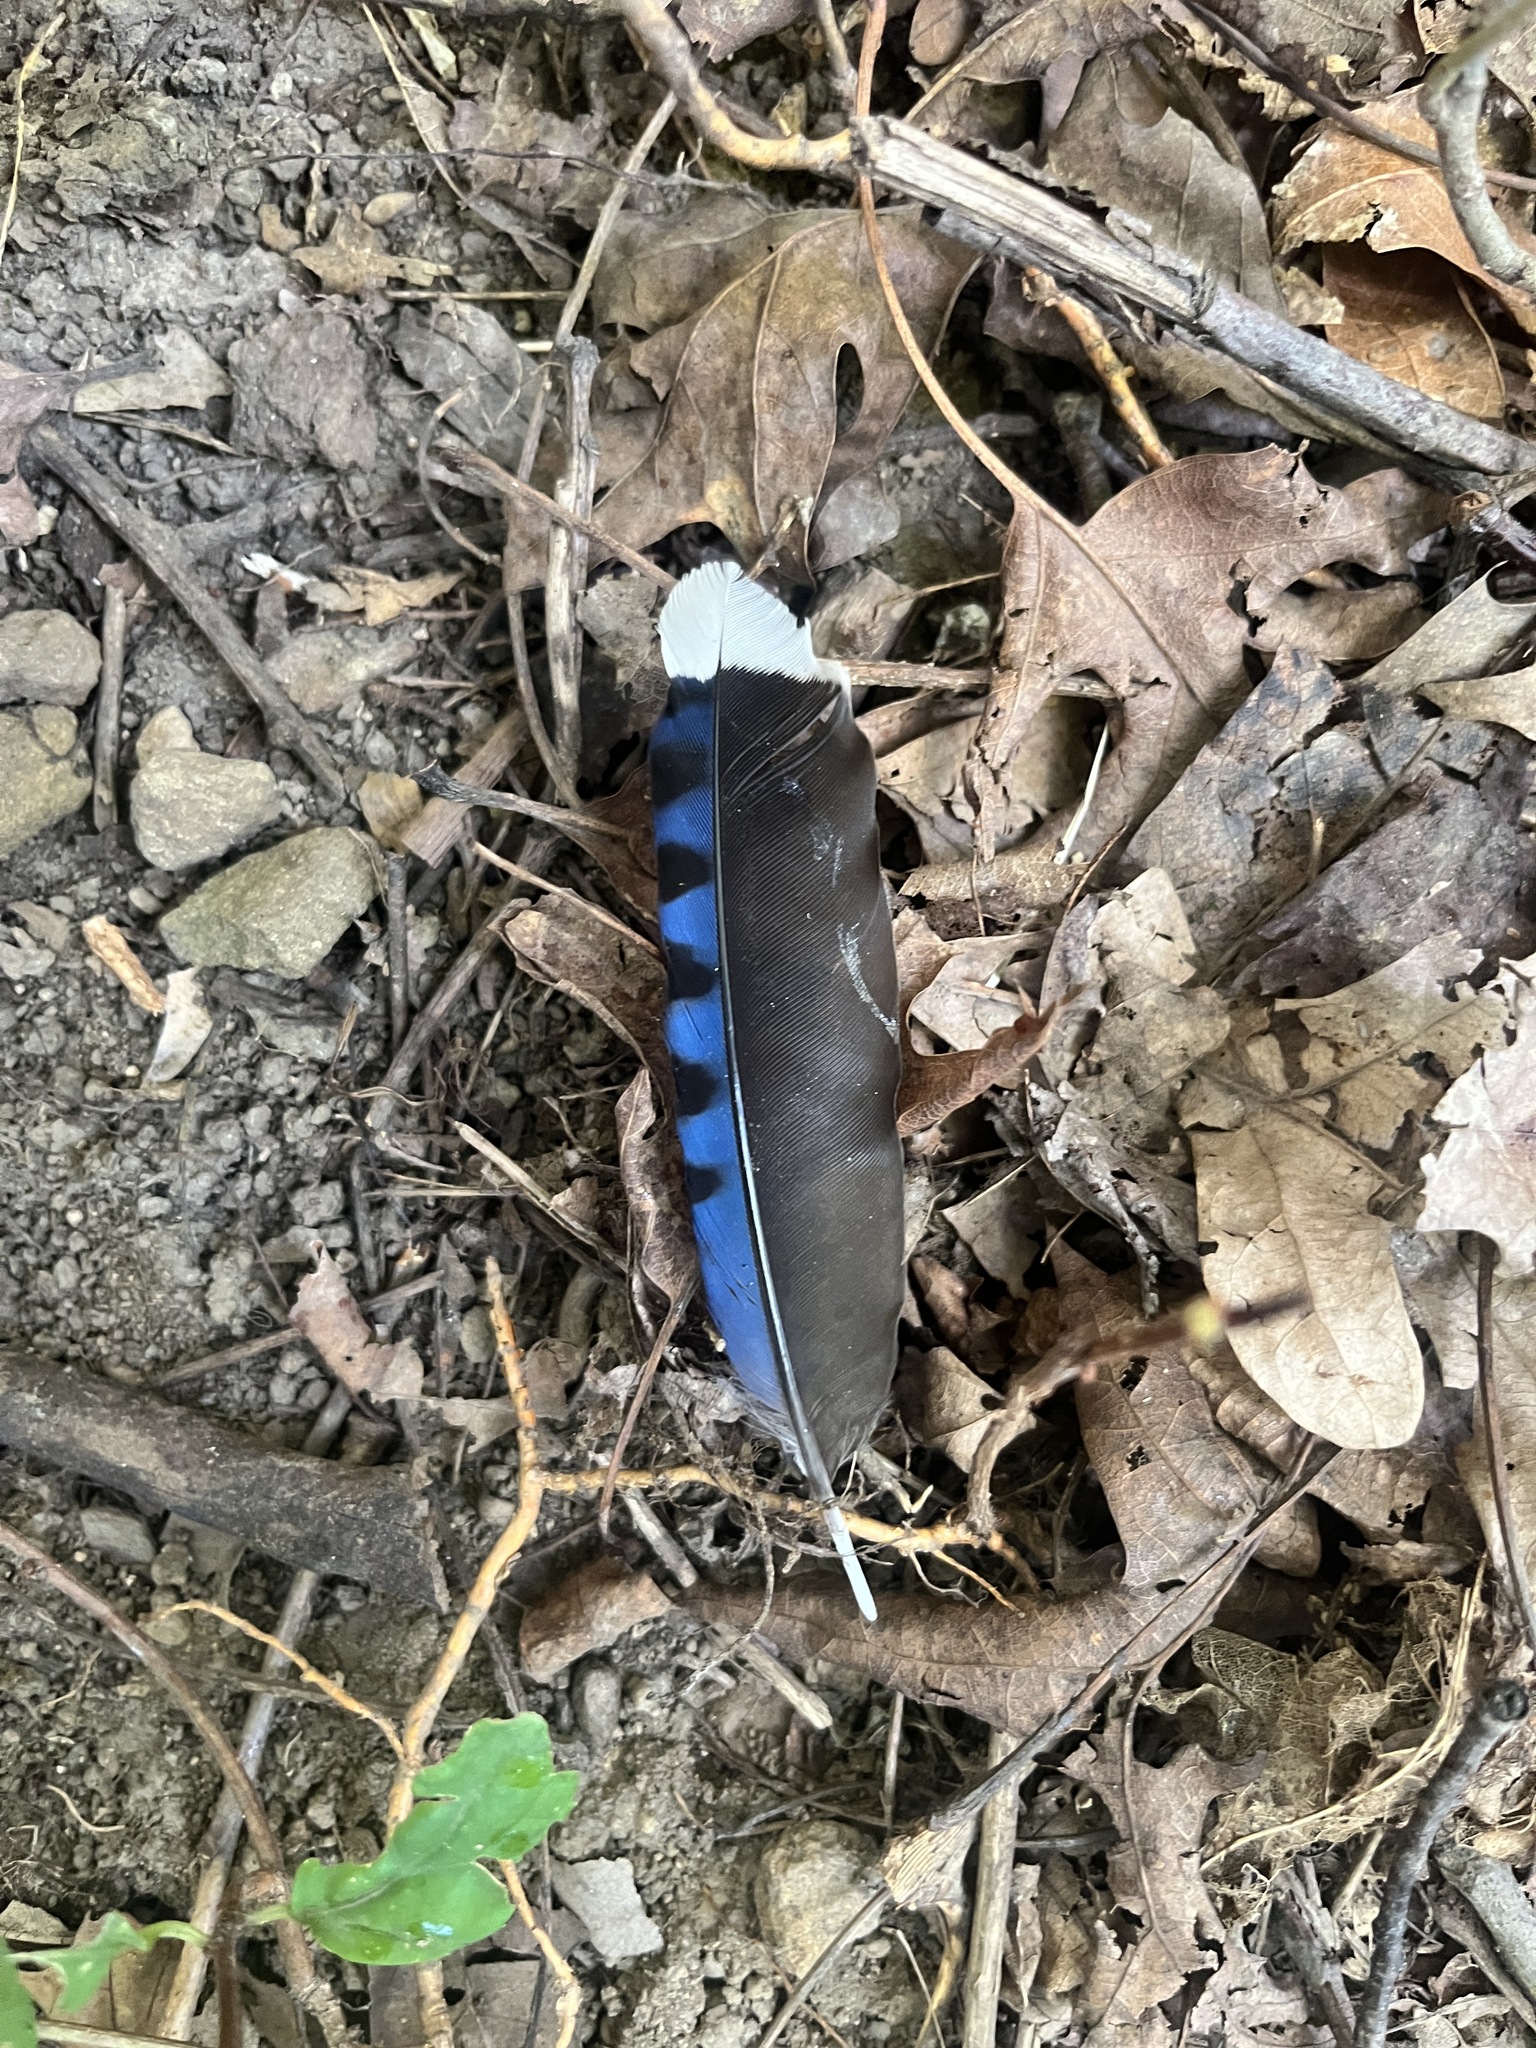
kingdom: Animalia
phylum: Chordata
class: Aves
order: Passeriformes
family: Corvidae
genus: Cyanocitta
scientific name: Cyanocitta cristata
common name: Blue jay
